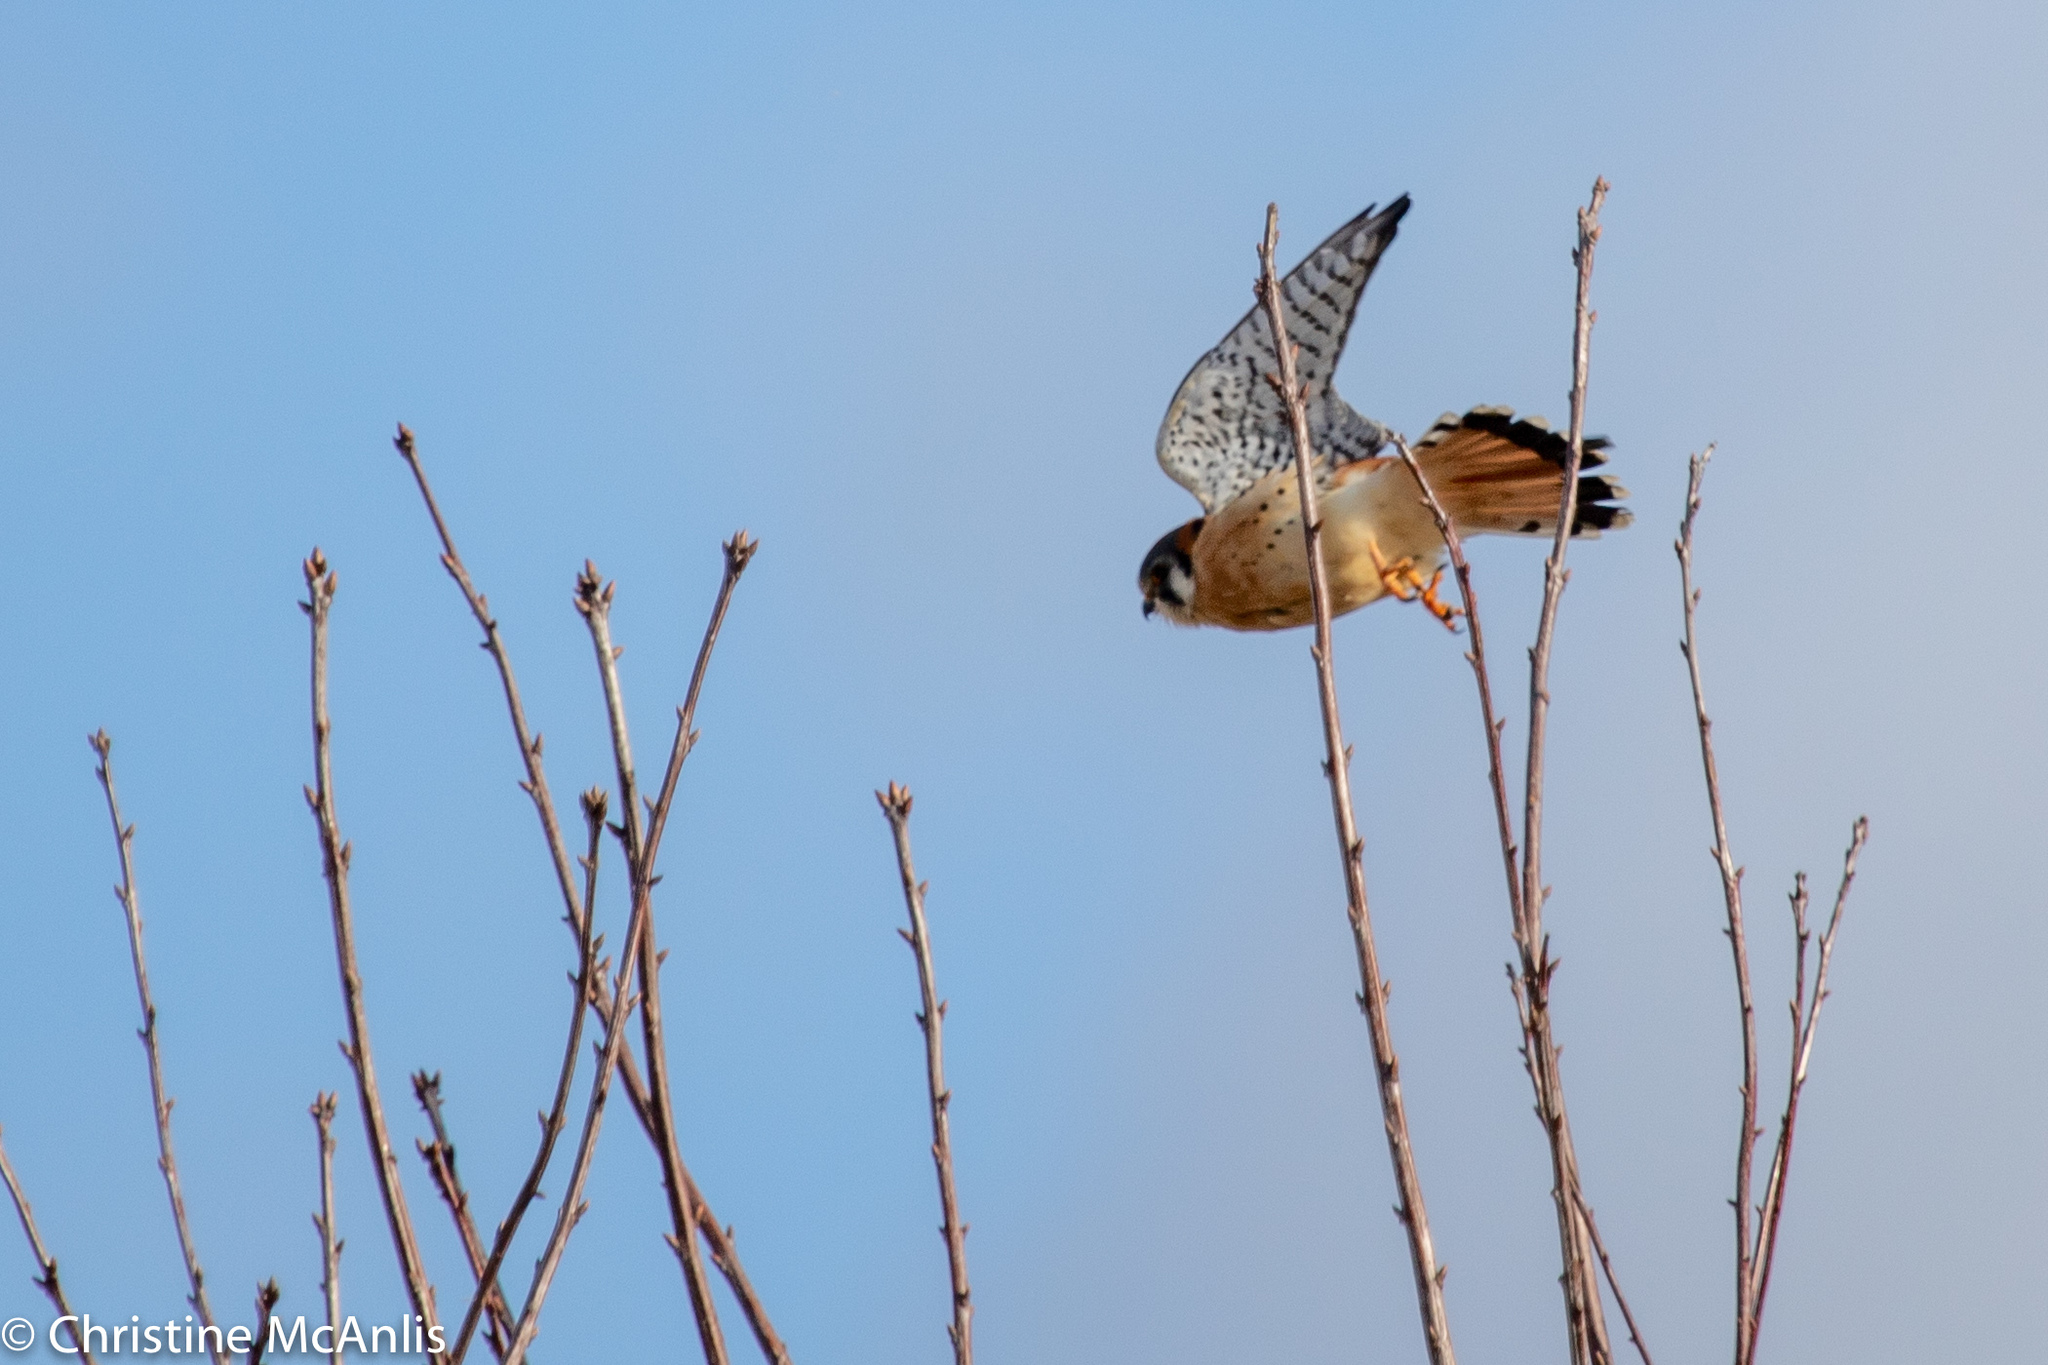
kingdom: Animalia
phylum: Chordata
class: Aves
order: Falconiformes
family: Falconidae
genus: Falco
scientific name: Falco sparverius
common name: American kestrel
